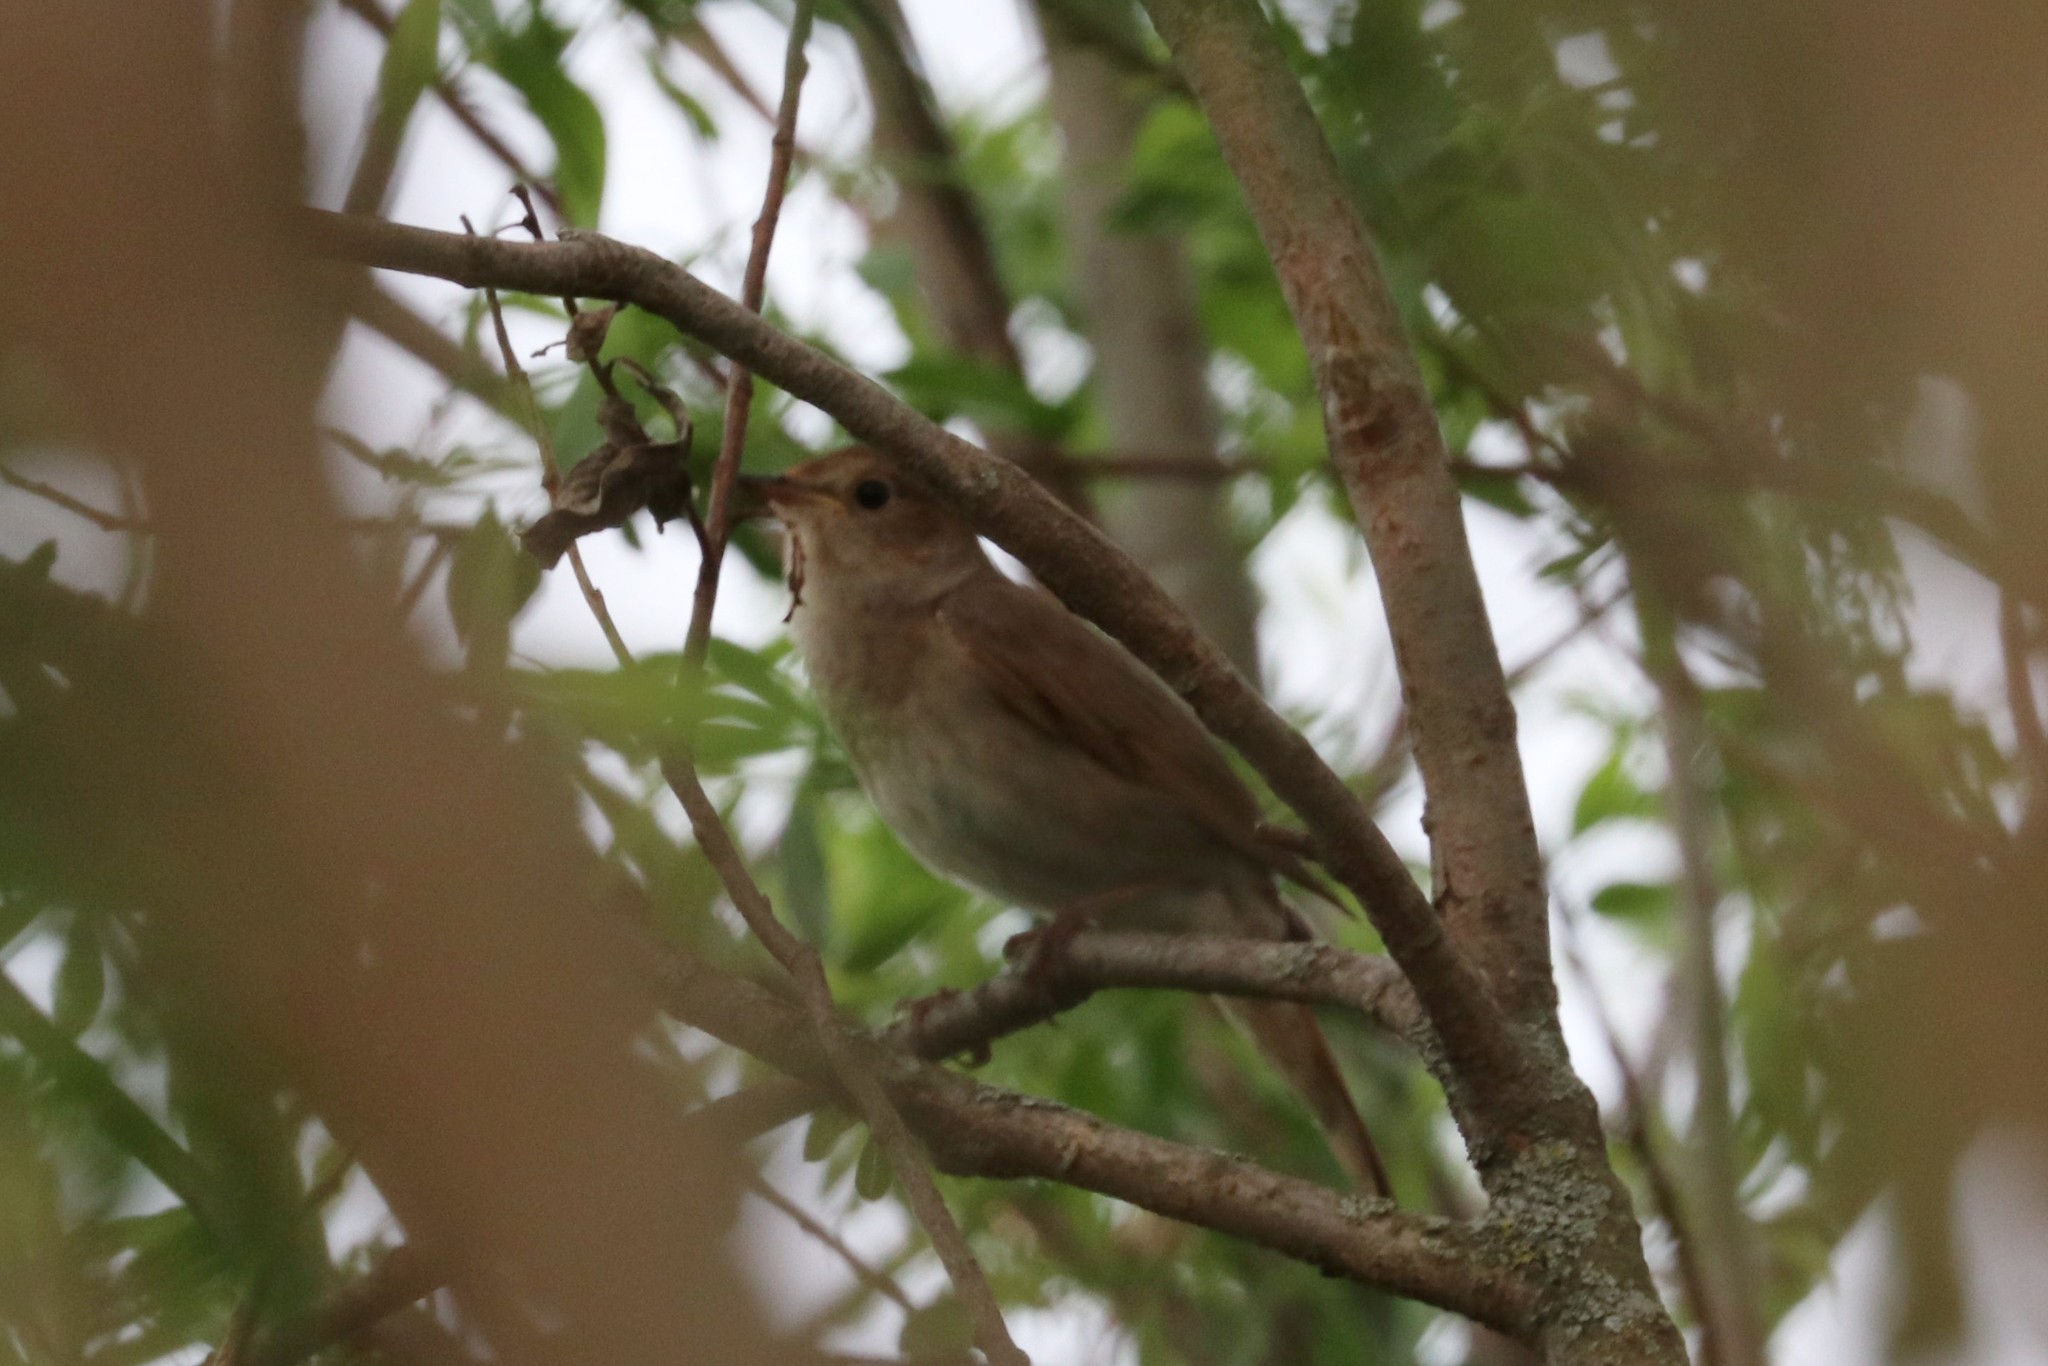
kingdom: Animalia
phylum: Chordata
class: Aves
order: Passeriformes
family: Muscicapidae
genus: Luscinia
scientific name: Luscinia luscinia
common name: Thrush nightingale
